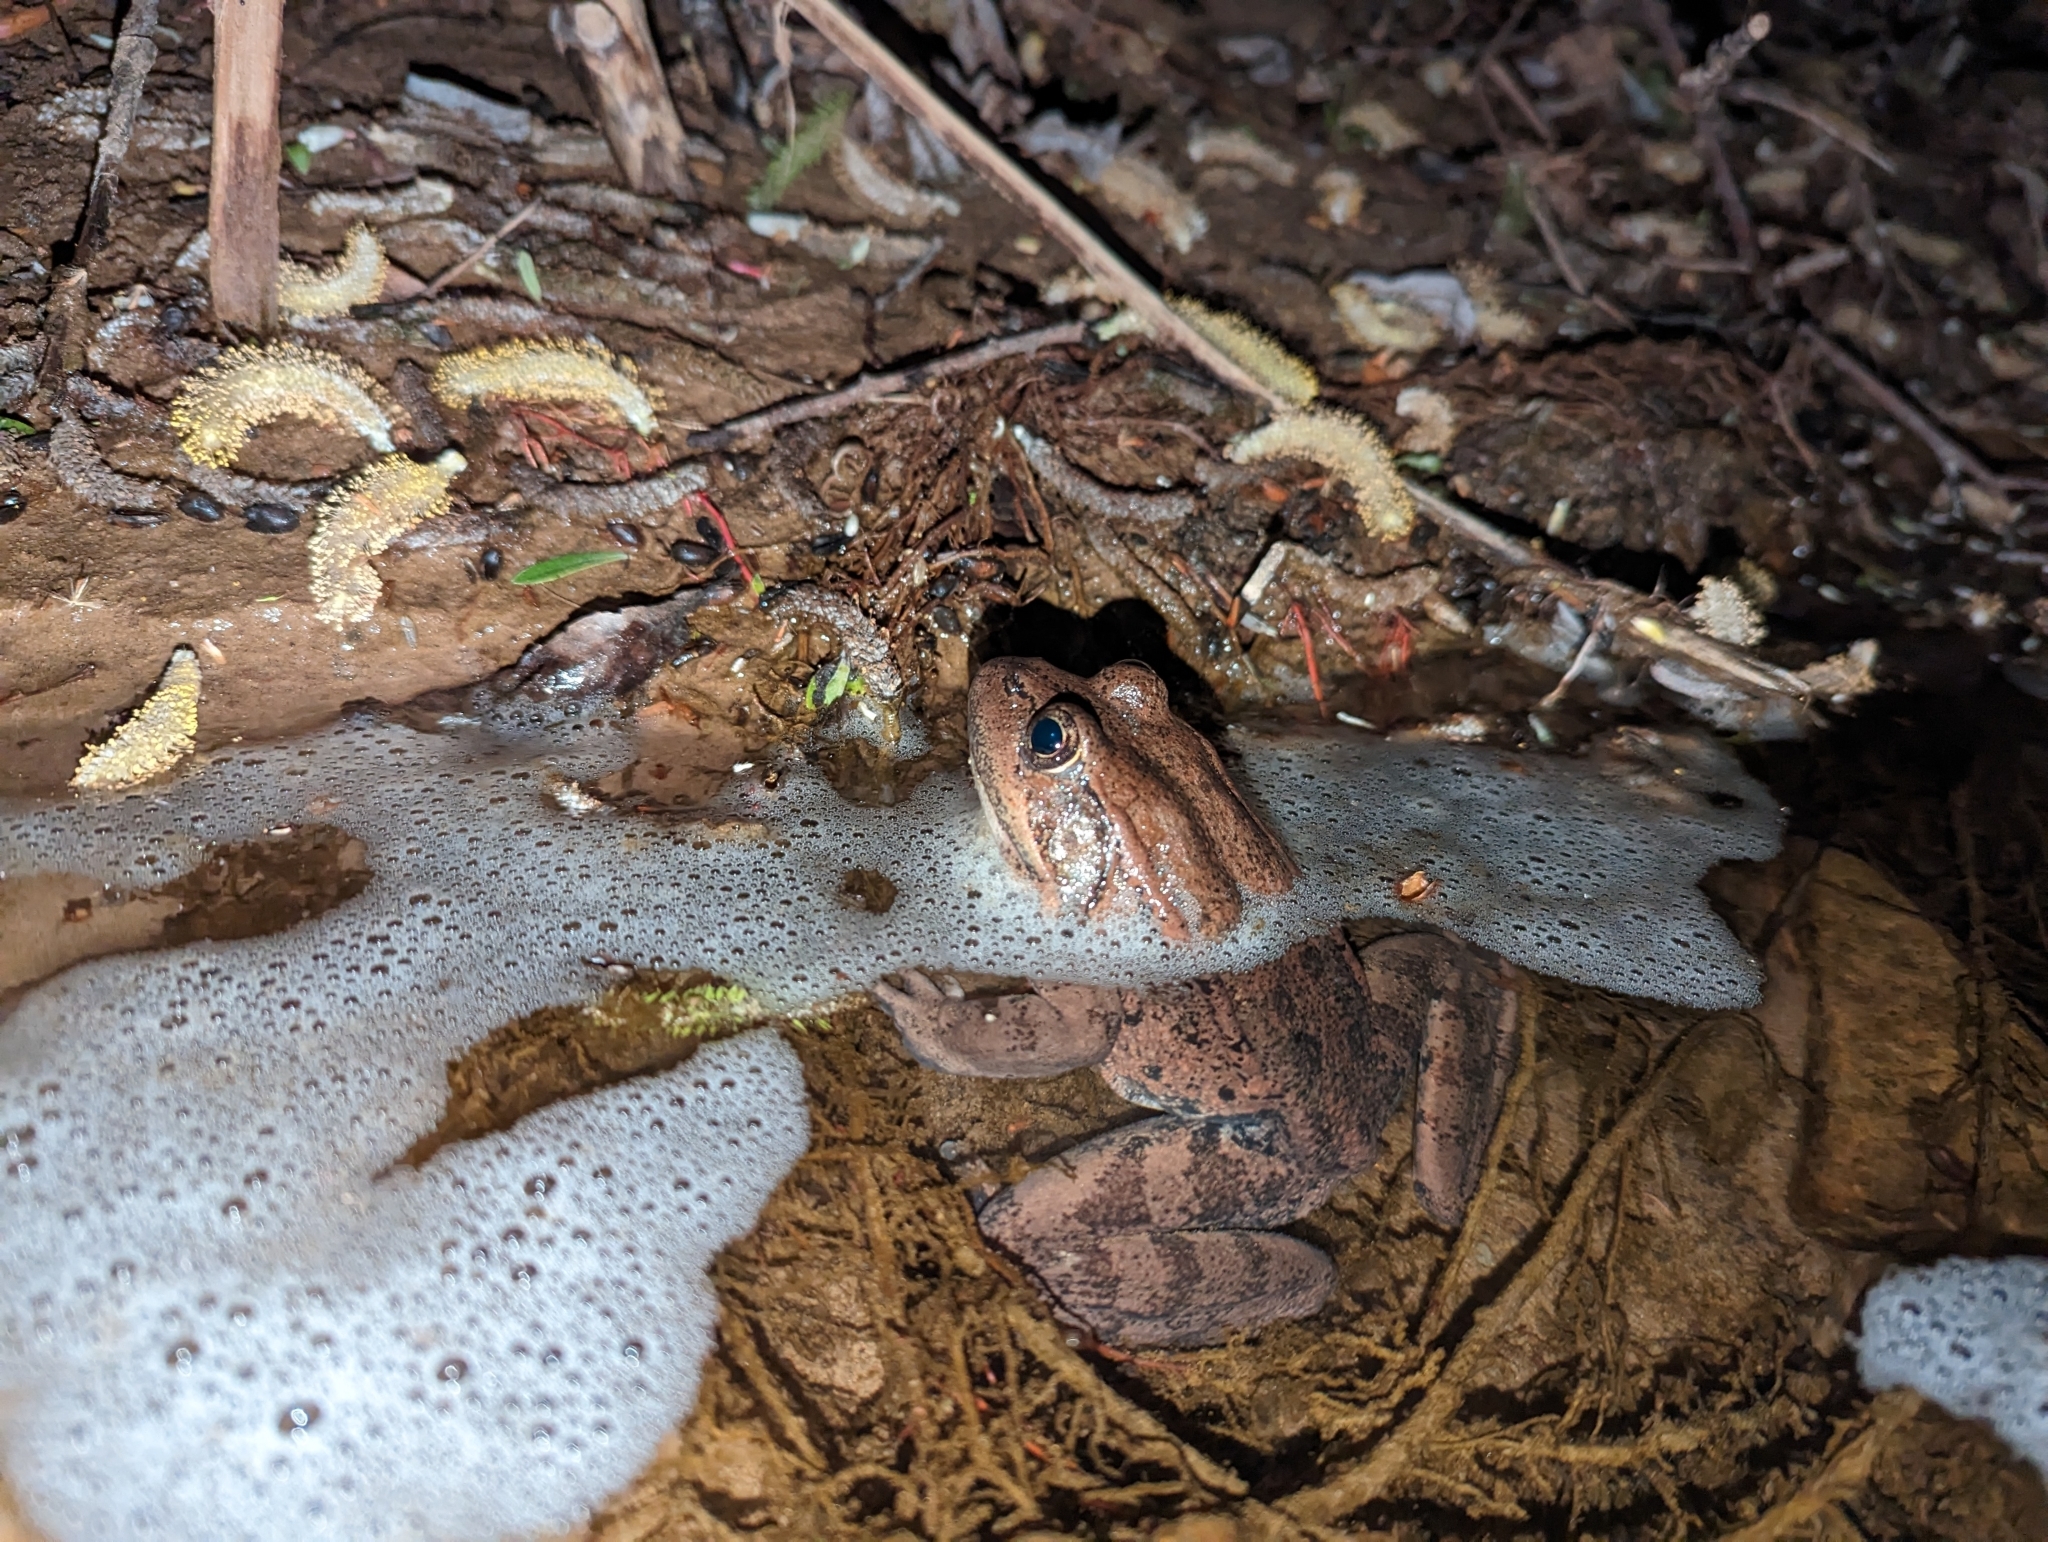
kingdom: Animalia
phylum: Chordata
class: Amphibia
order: Anura
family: Ranidae
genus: Rana
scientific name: Rana draytonii
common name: California red-legged frog
